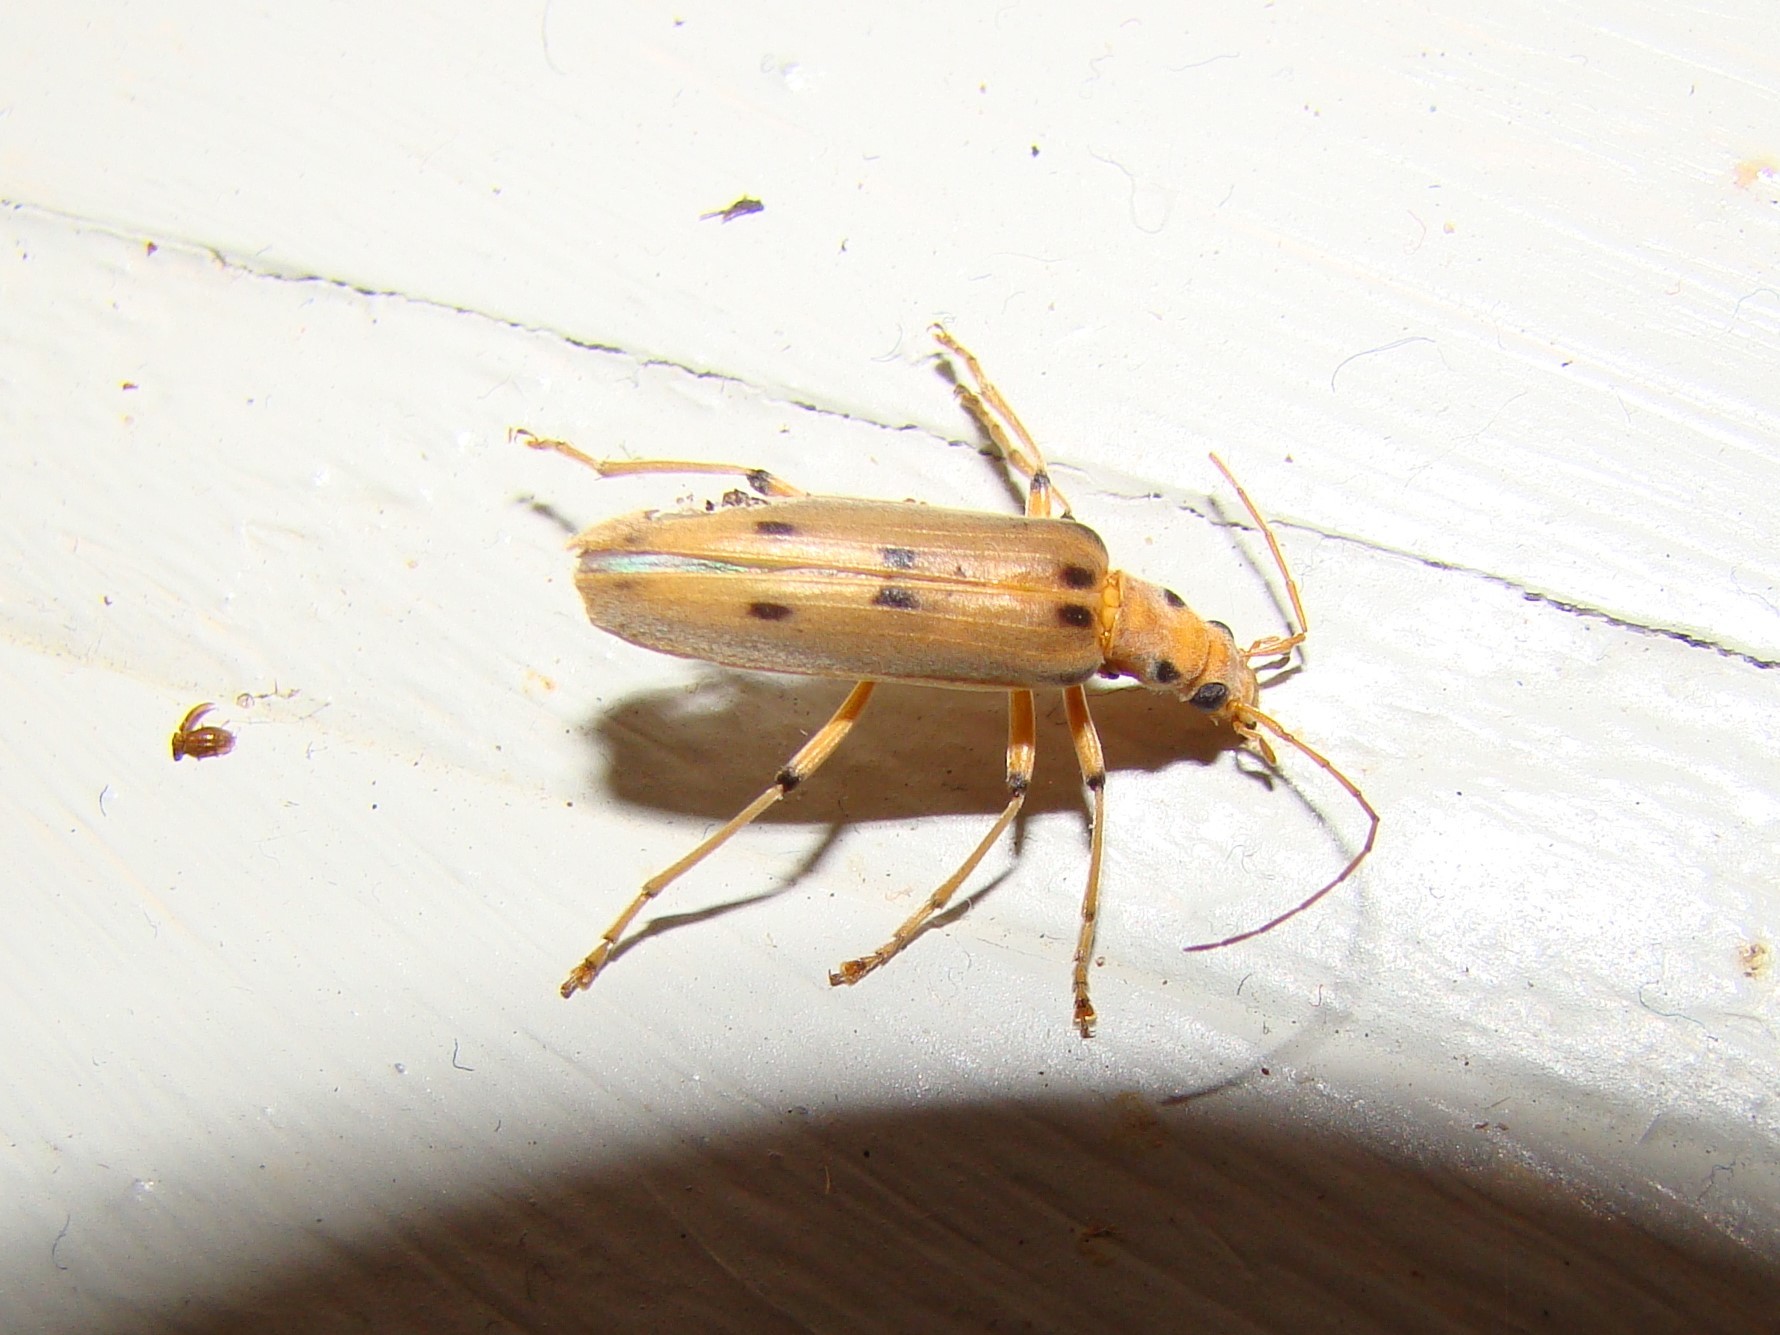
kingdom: Animalia
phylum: Arthropoda
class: Insecta
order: Coleoptera
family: Oedemeridae
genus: Parisopalpus
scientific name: Parisopalpus
